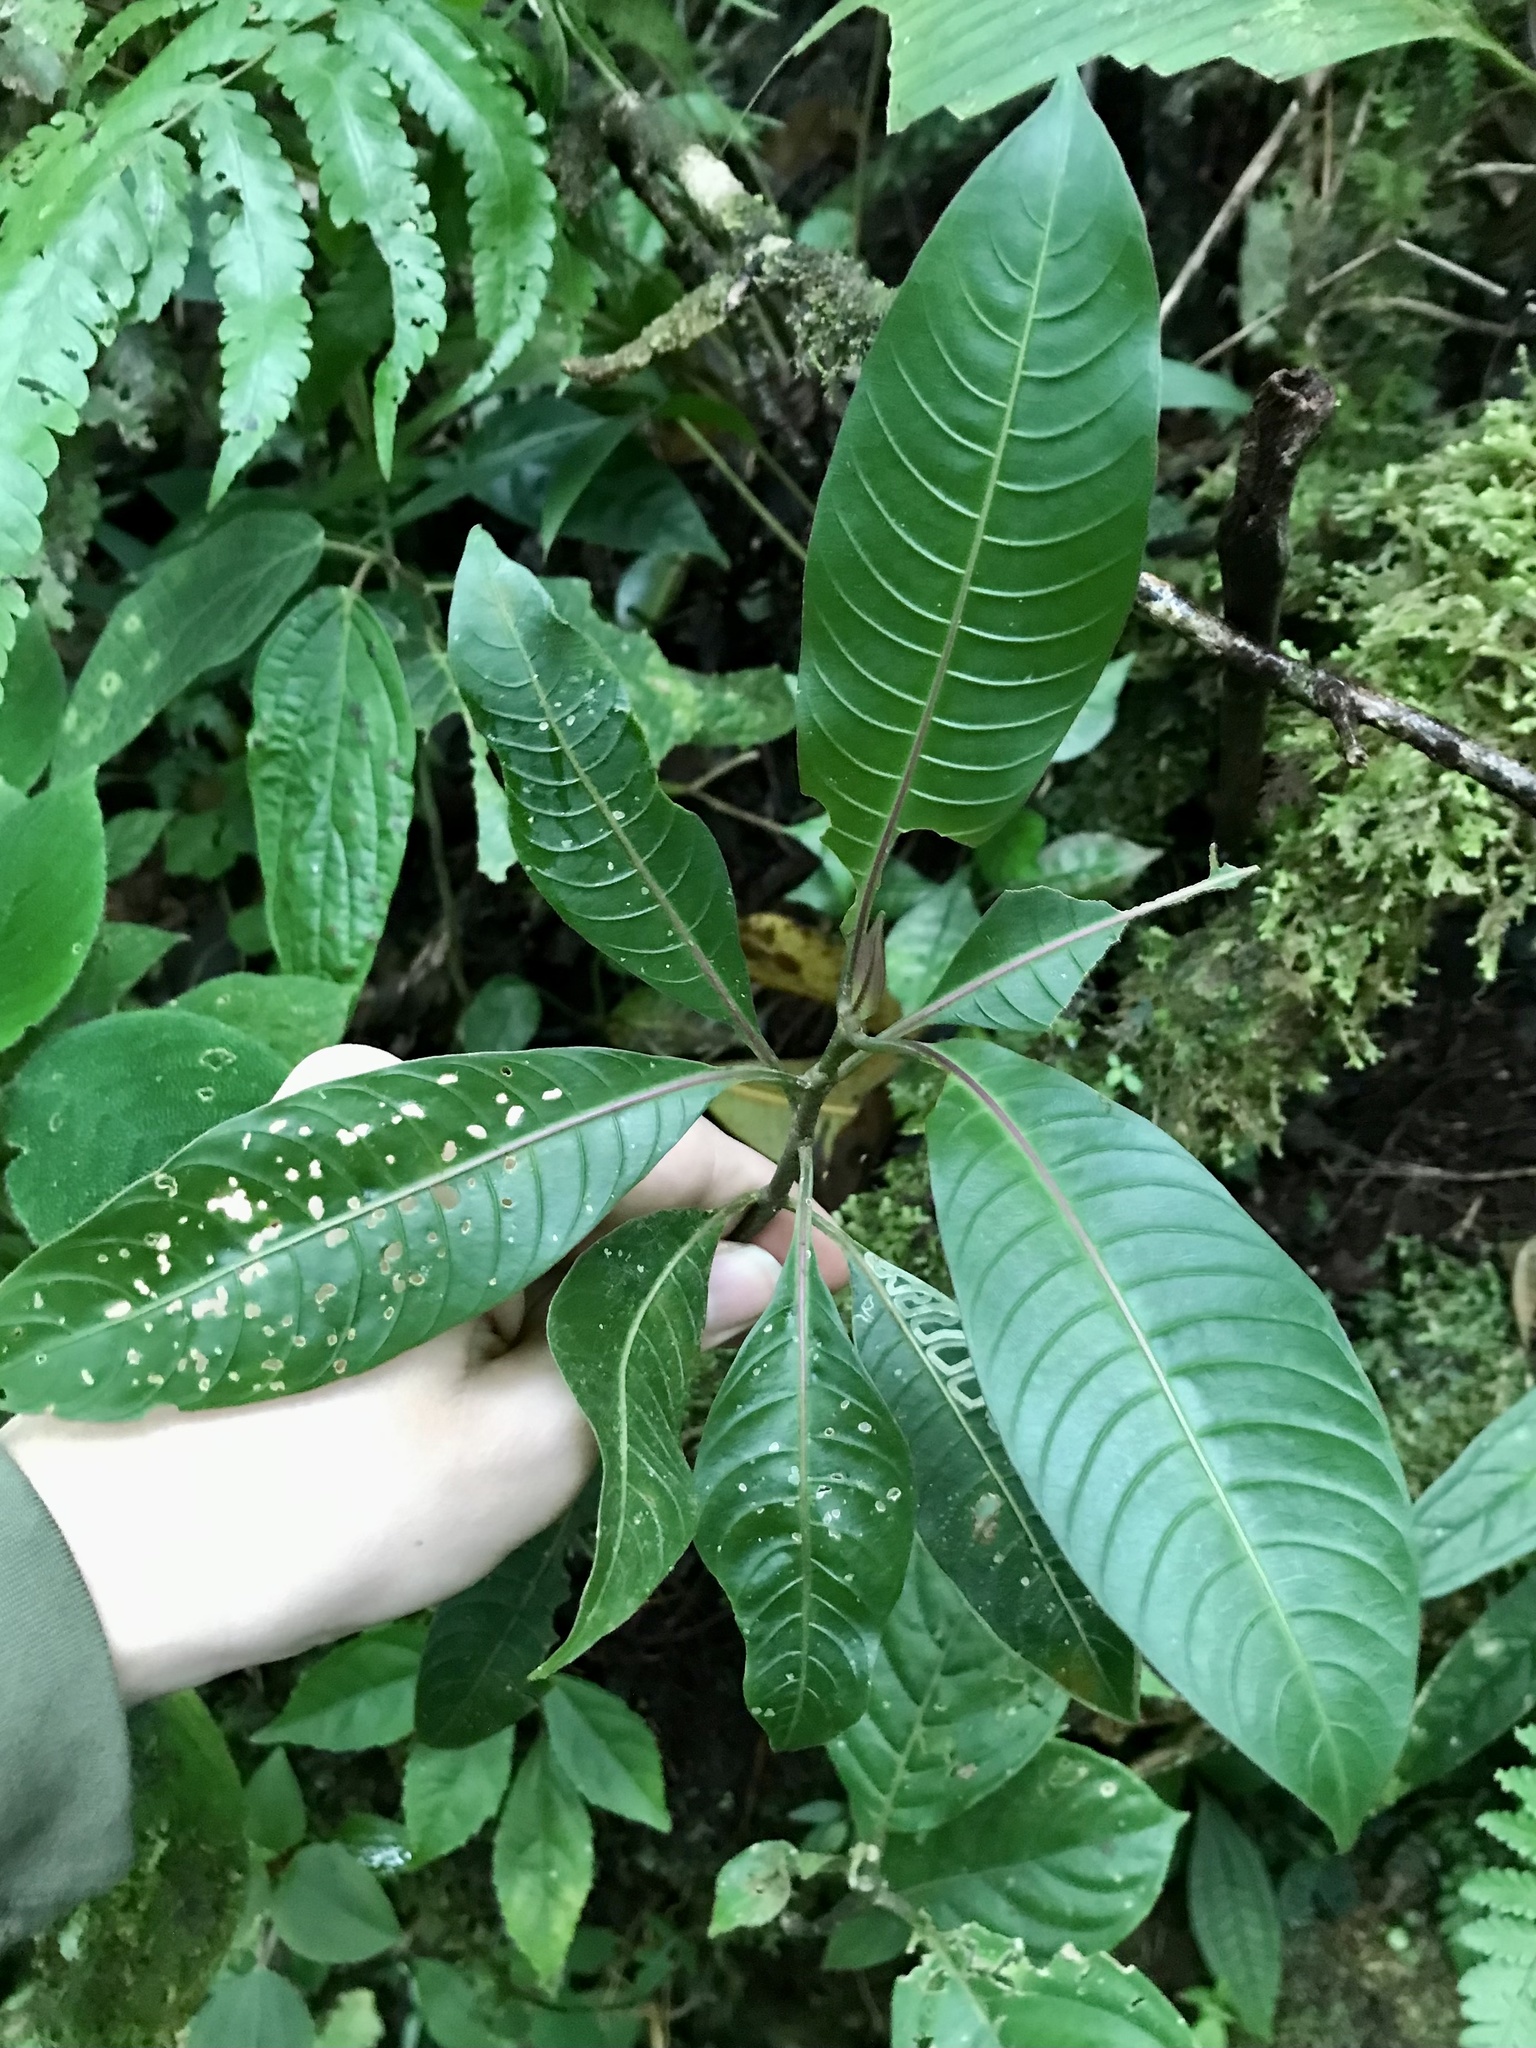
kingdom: Plantae
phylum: Tracheophyta
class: Magnoliopsida
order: Gentianales
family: Rubiaceae
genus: Palicourea
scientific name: Palicourea elata
